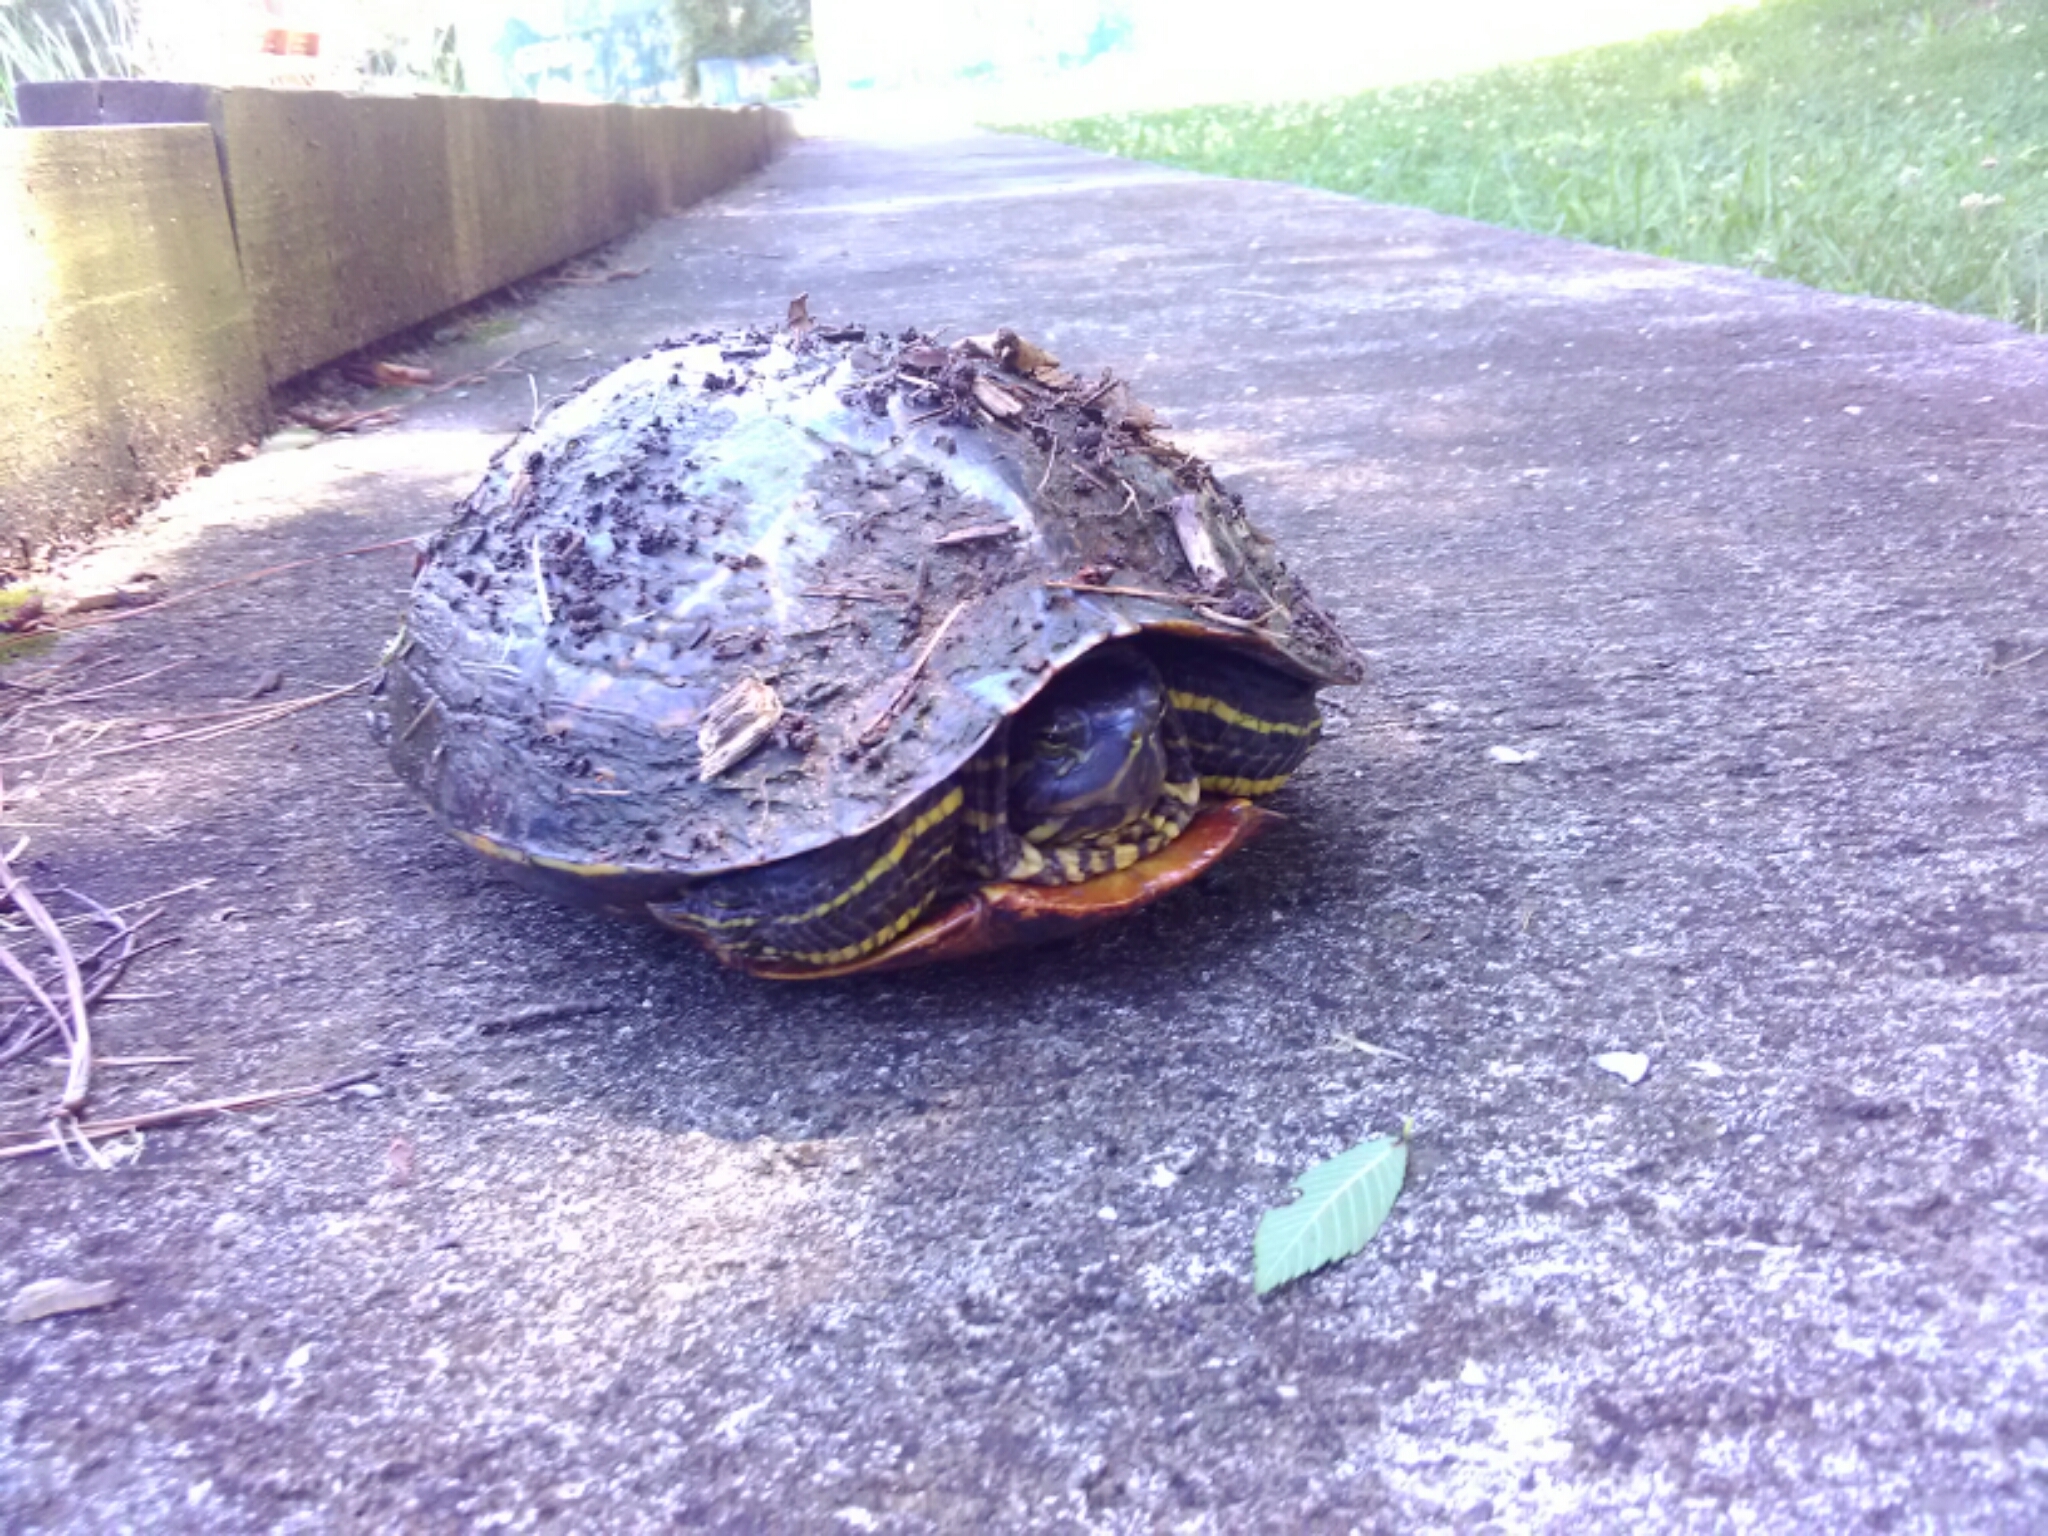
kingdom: Animalia
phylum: Chordata
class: Testudines
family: Emydidae
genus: Trachemys
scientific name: Trachemys scripta
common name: Slider
